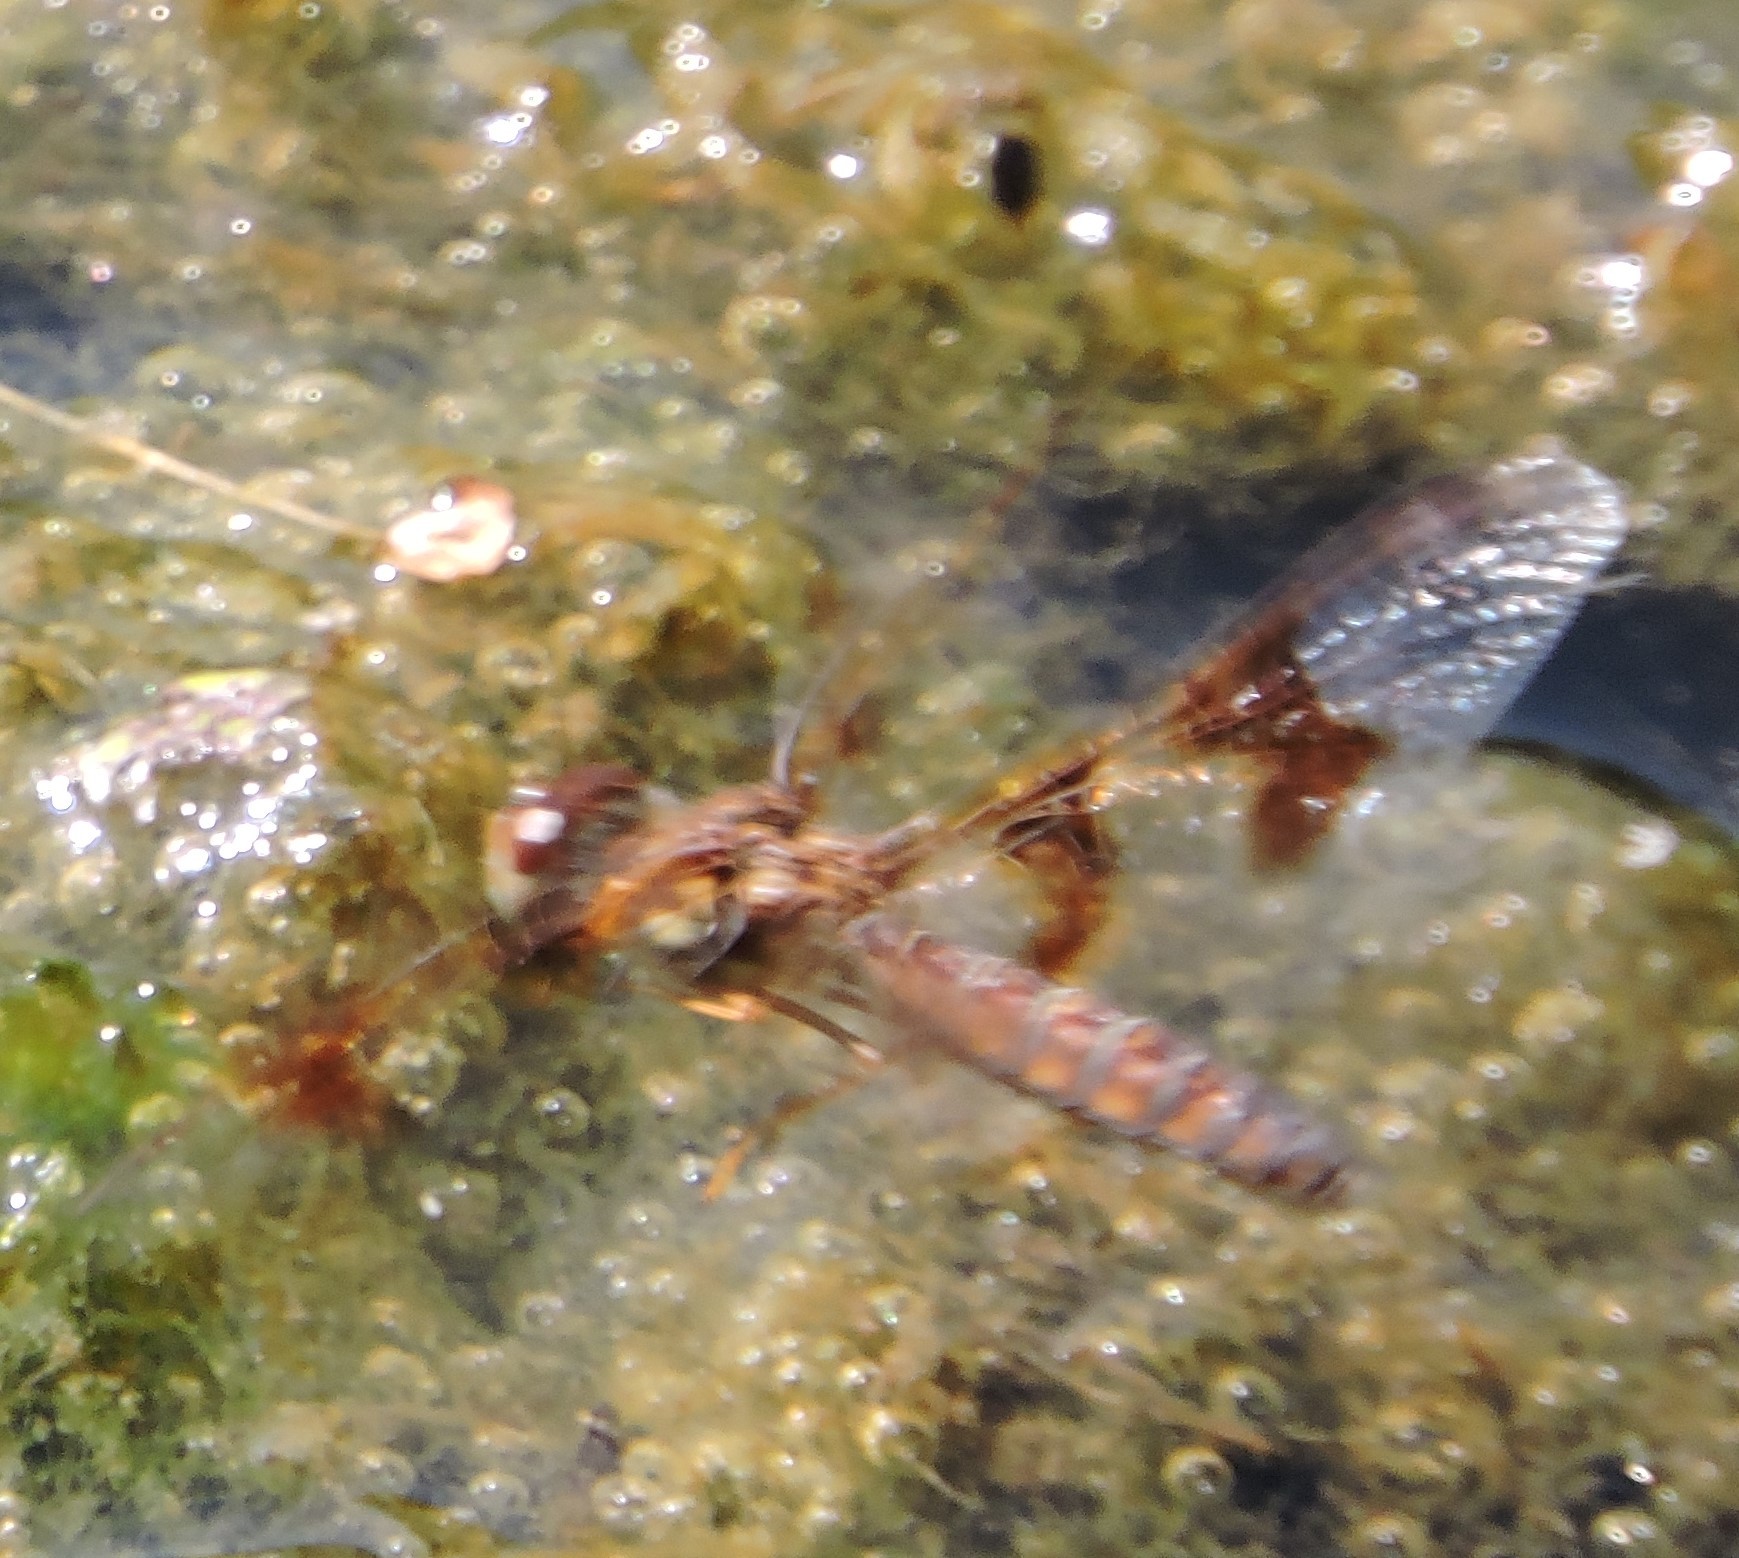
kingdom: Animalia
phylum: Arthropoda
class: Insecta
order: Odonata
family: Libellulidae
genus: Perithemis
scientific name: Perithemis tenera
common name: Eastern amberwing
